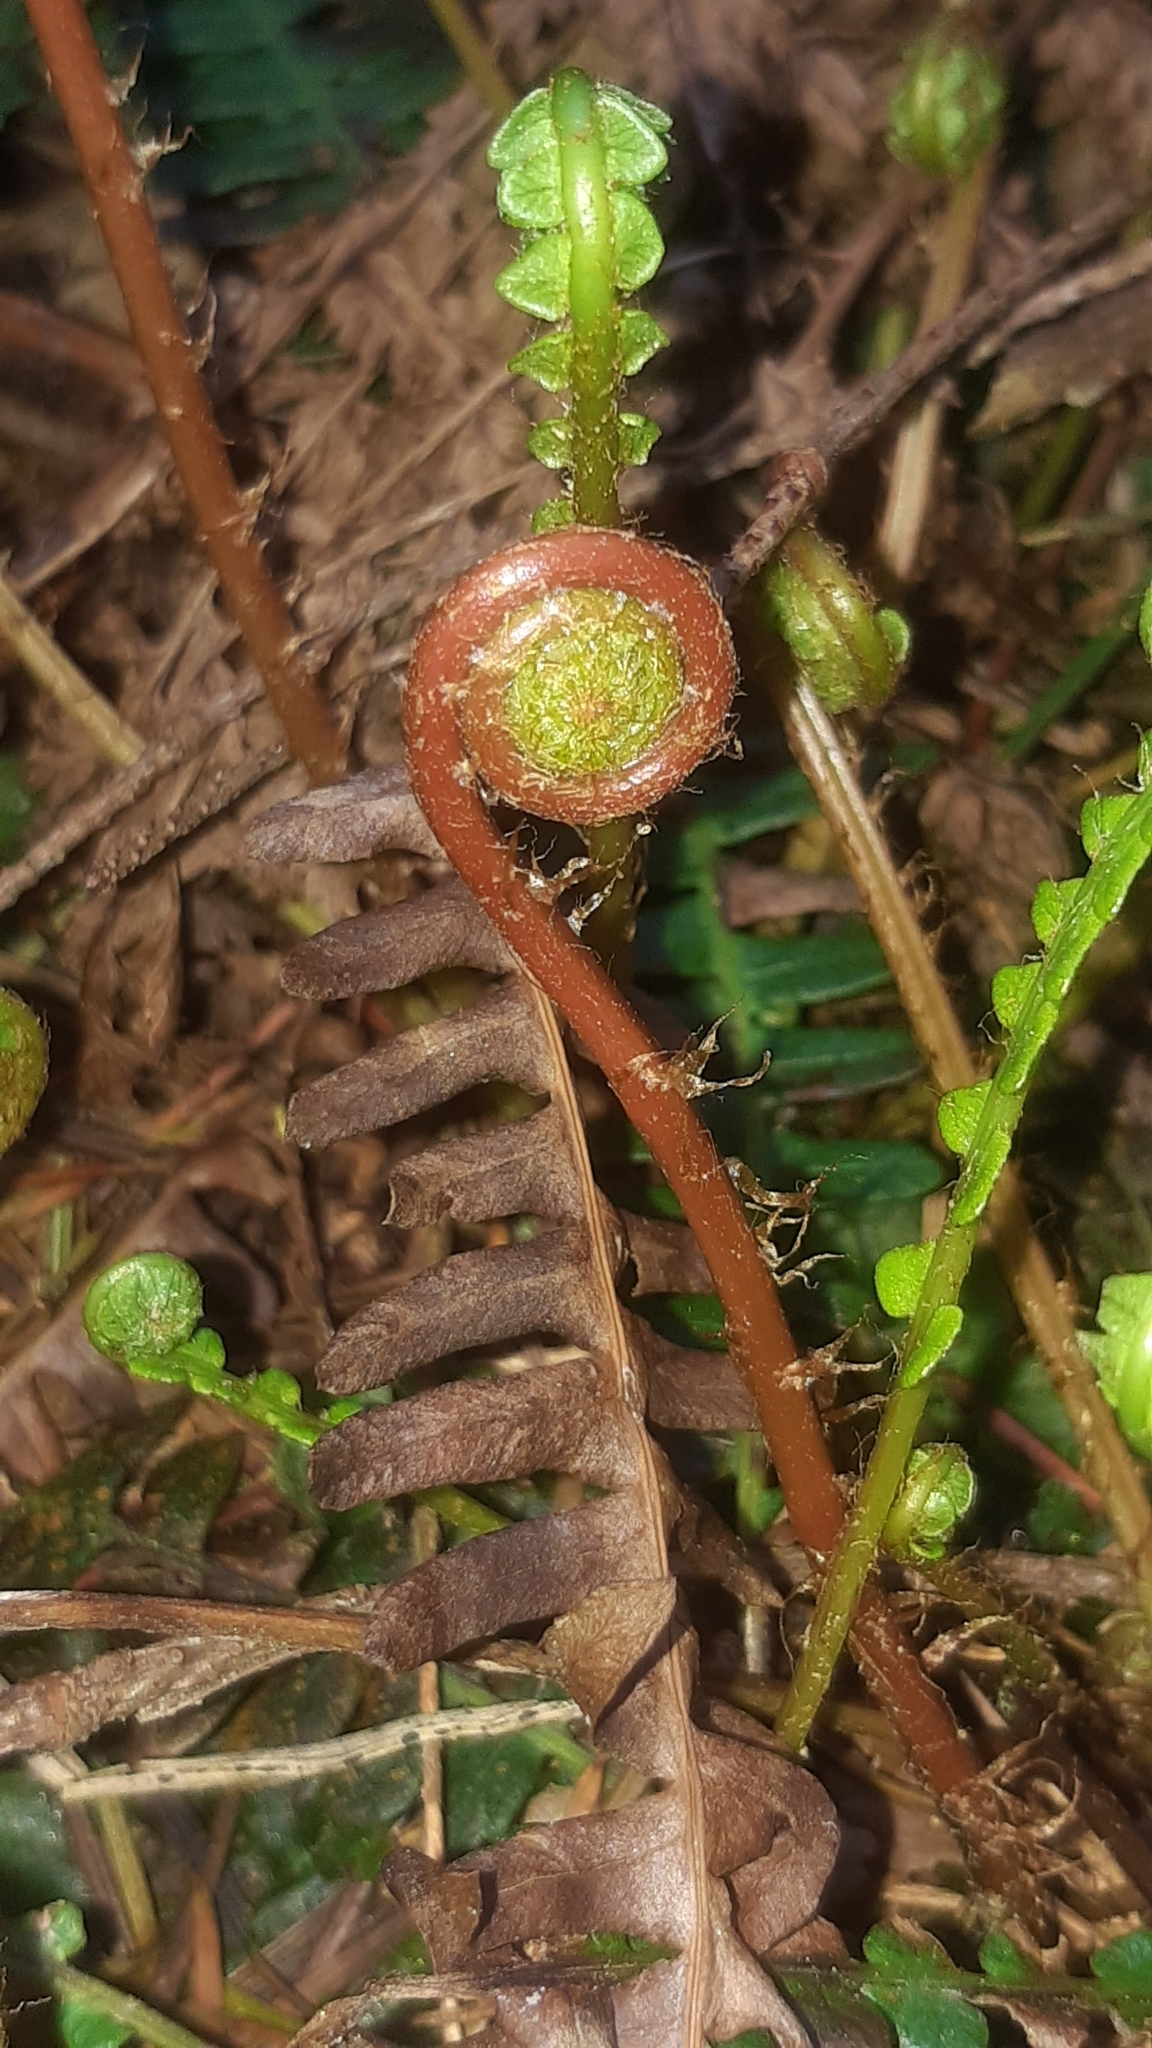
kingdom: Plantae
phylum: Tracheophyta
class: Polypodiopsida
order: Polypodiales
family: Blechnaceae
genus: Struthiopteris
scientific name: Struthiopteris spicant
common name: Deer fern
